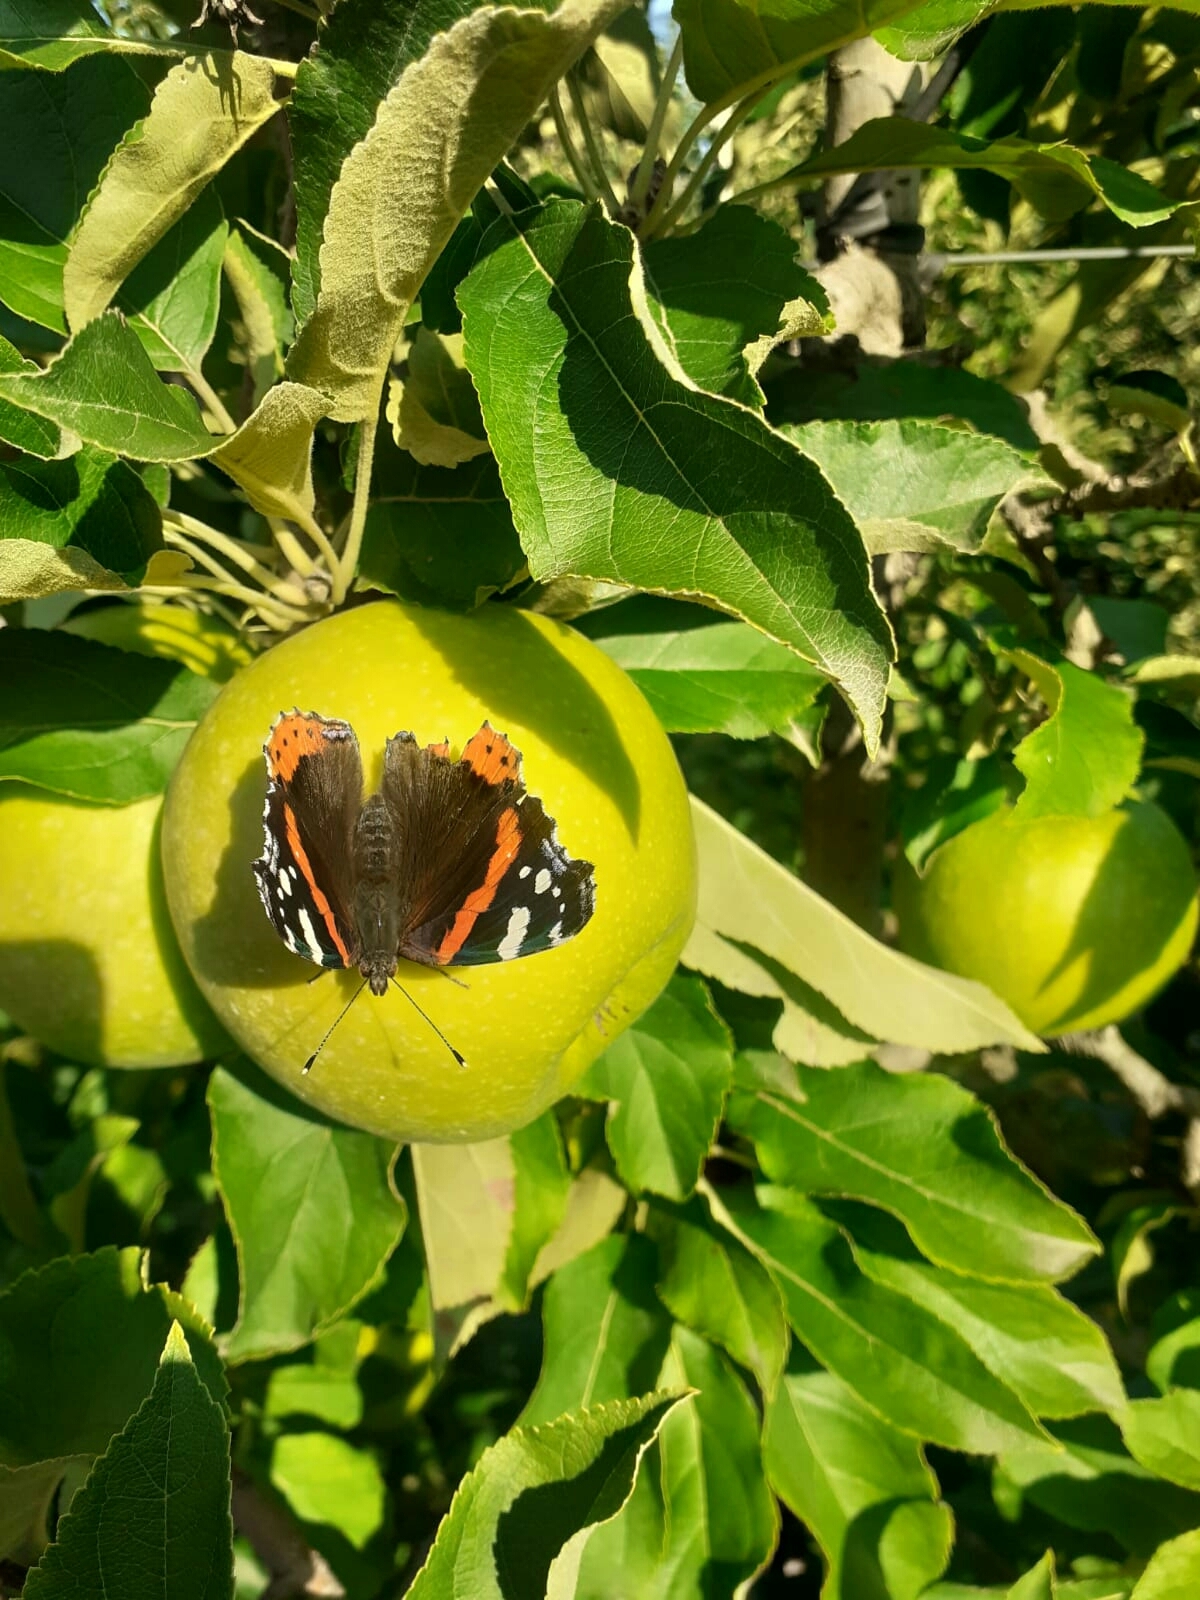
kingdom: Animalia
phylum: Arthropoda
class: Insecta
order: Lepidoptera
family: Nymphalidae
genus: Vanessa
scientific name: Vanessa atalanta
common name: Red admiral
